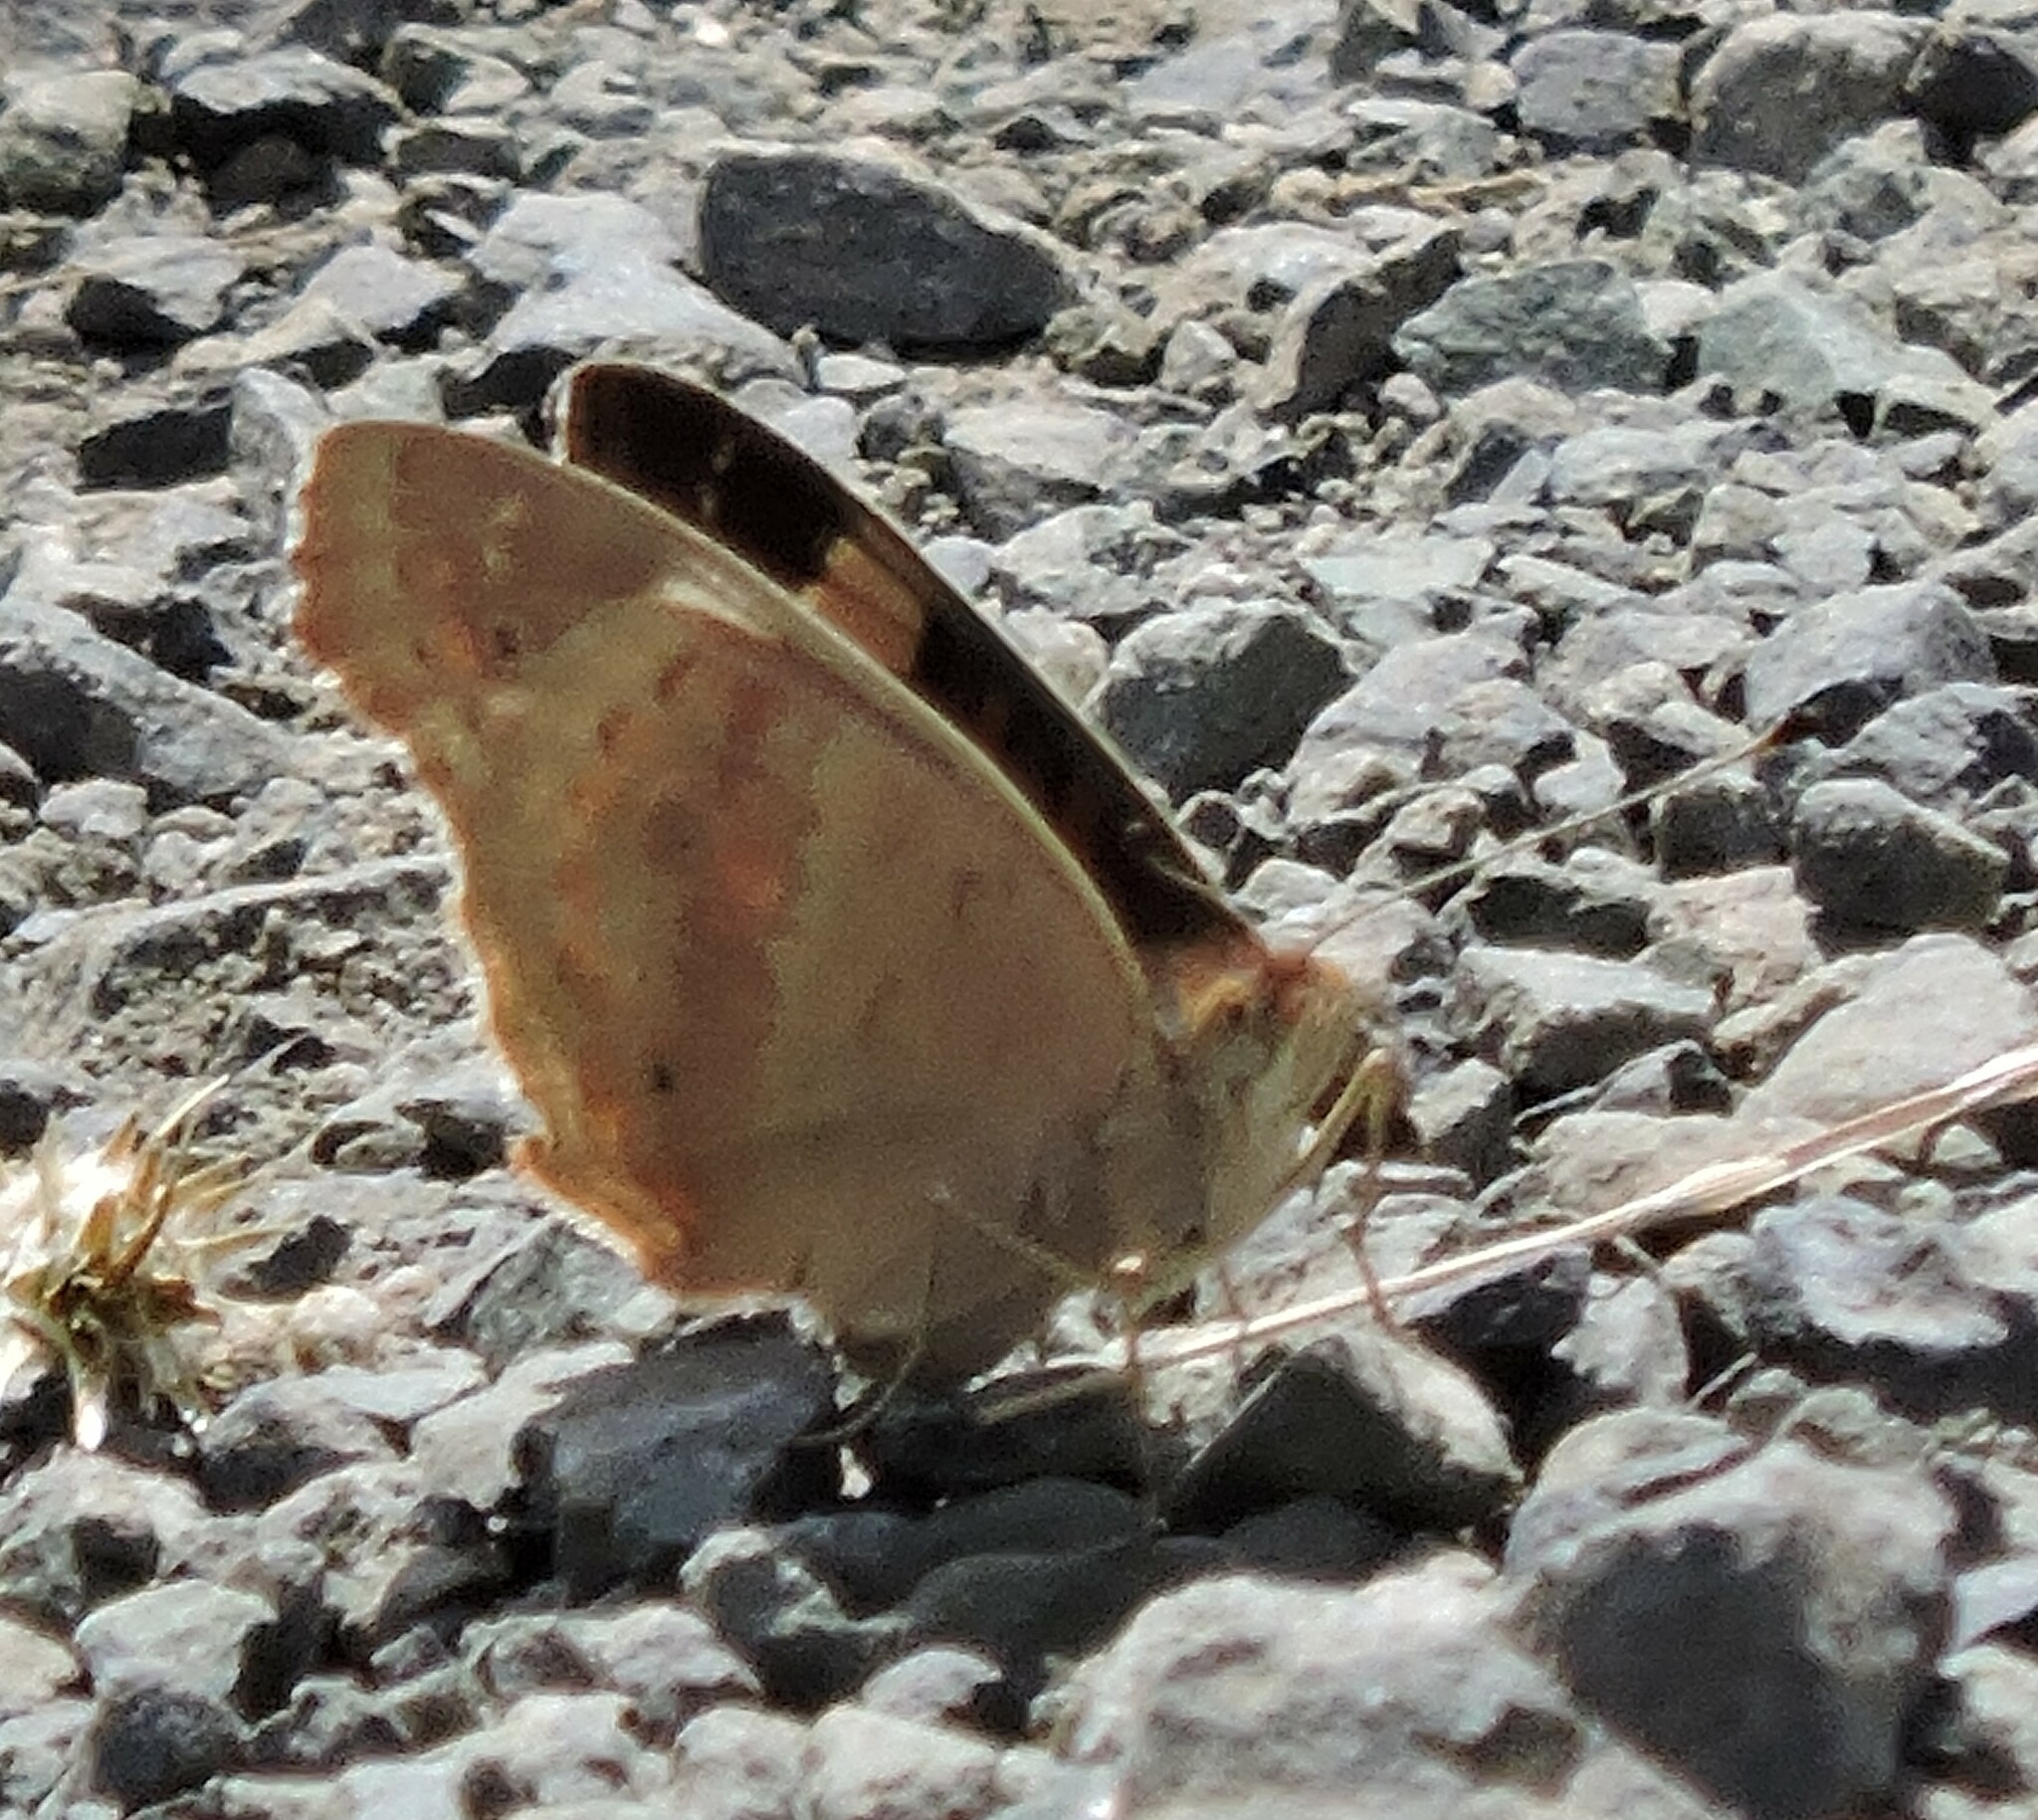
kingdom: Animalia
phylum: Arthropoda
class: Insecta
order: Lepidoptera
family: Nymphalidae
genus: Junonia
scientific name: Junonia grisea
